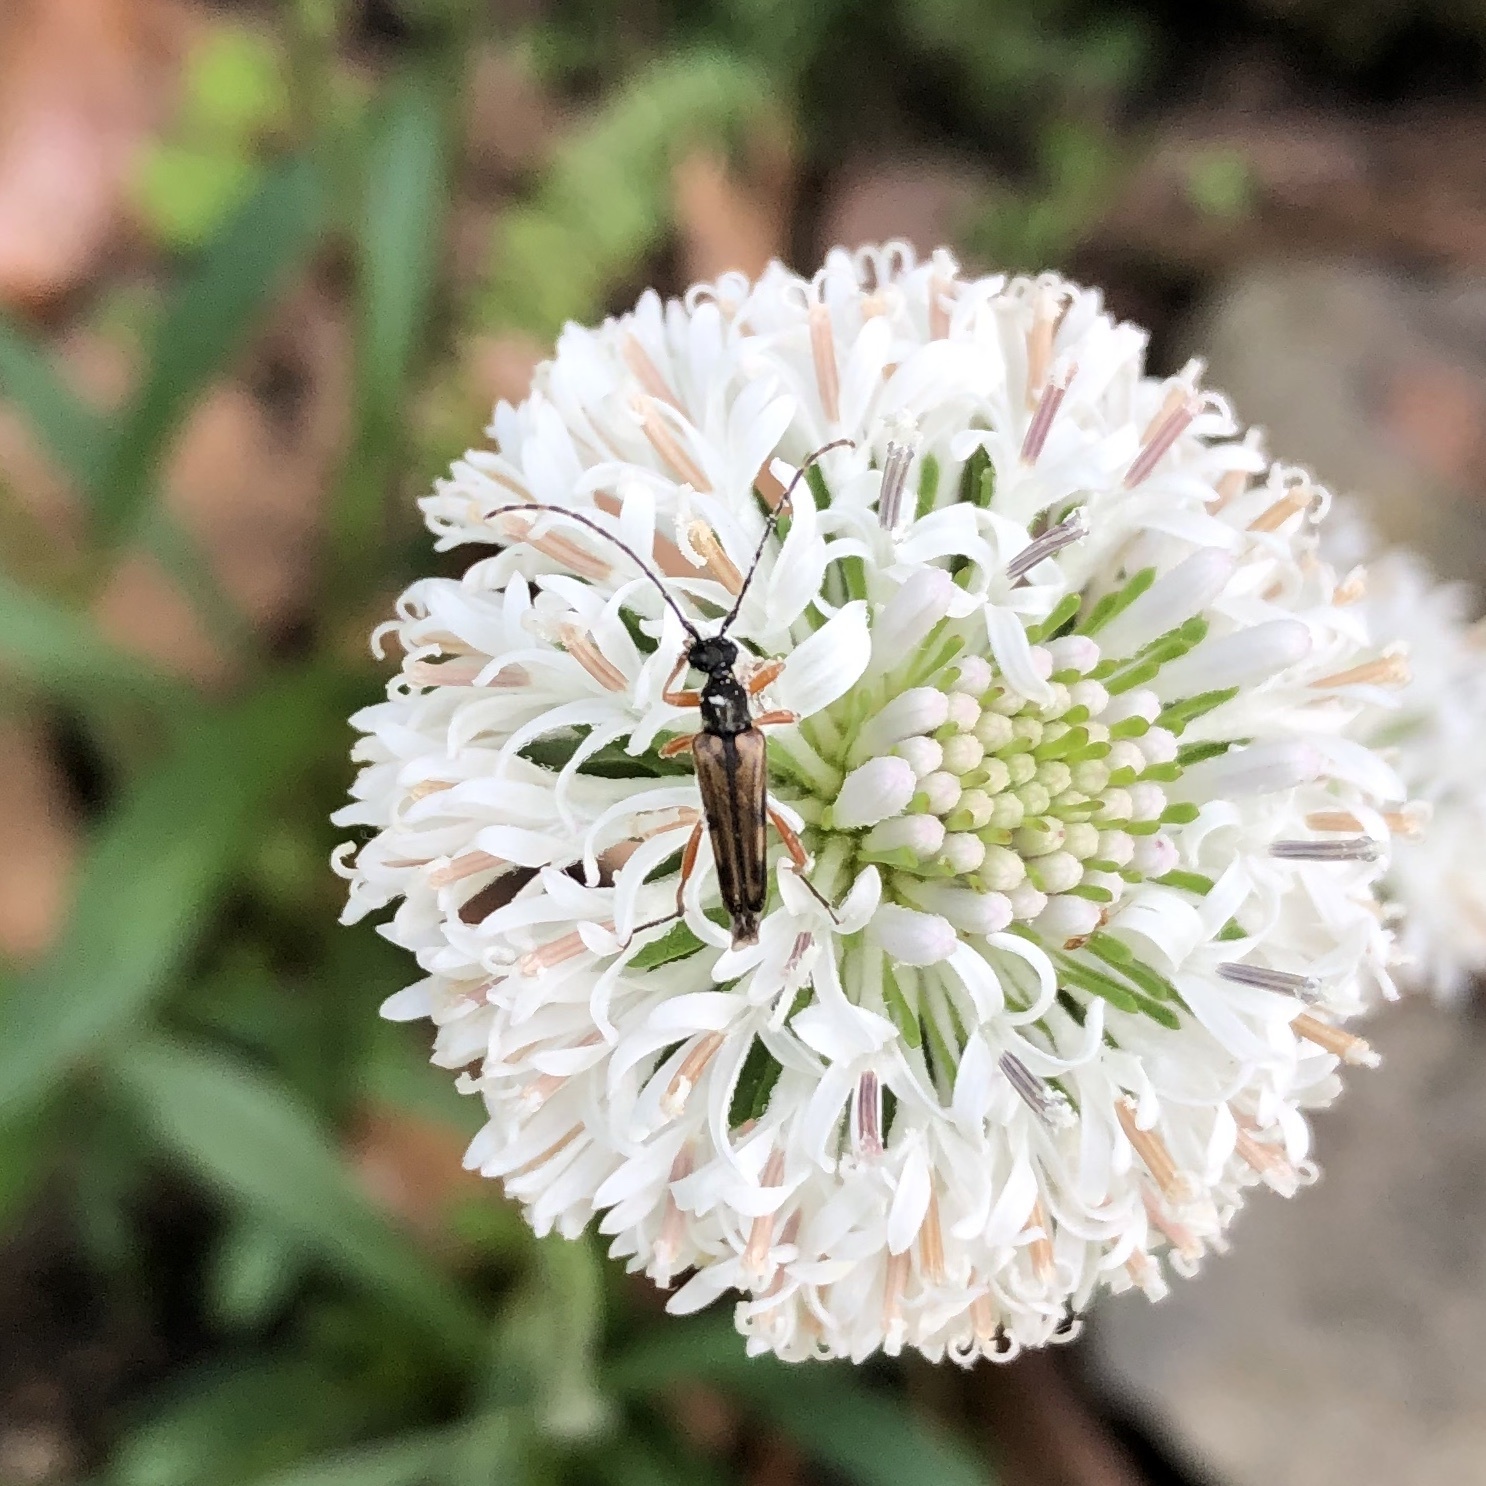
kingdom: Animalia
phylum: Arthropoda
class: Insecta
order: Coleoptera
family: Cerambycidae
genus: Analeptura
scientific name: Analeptura lineola
